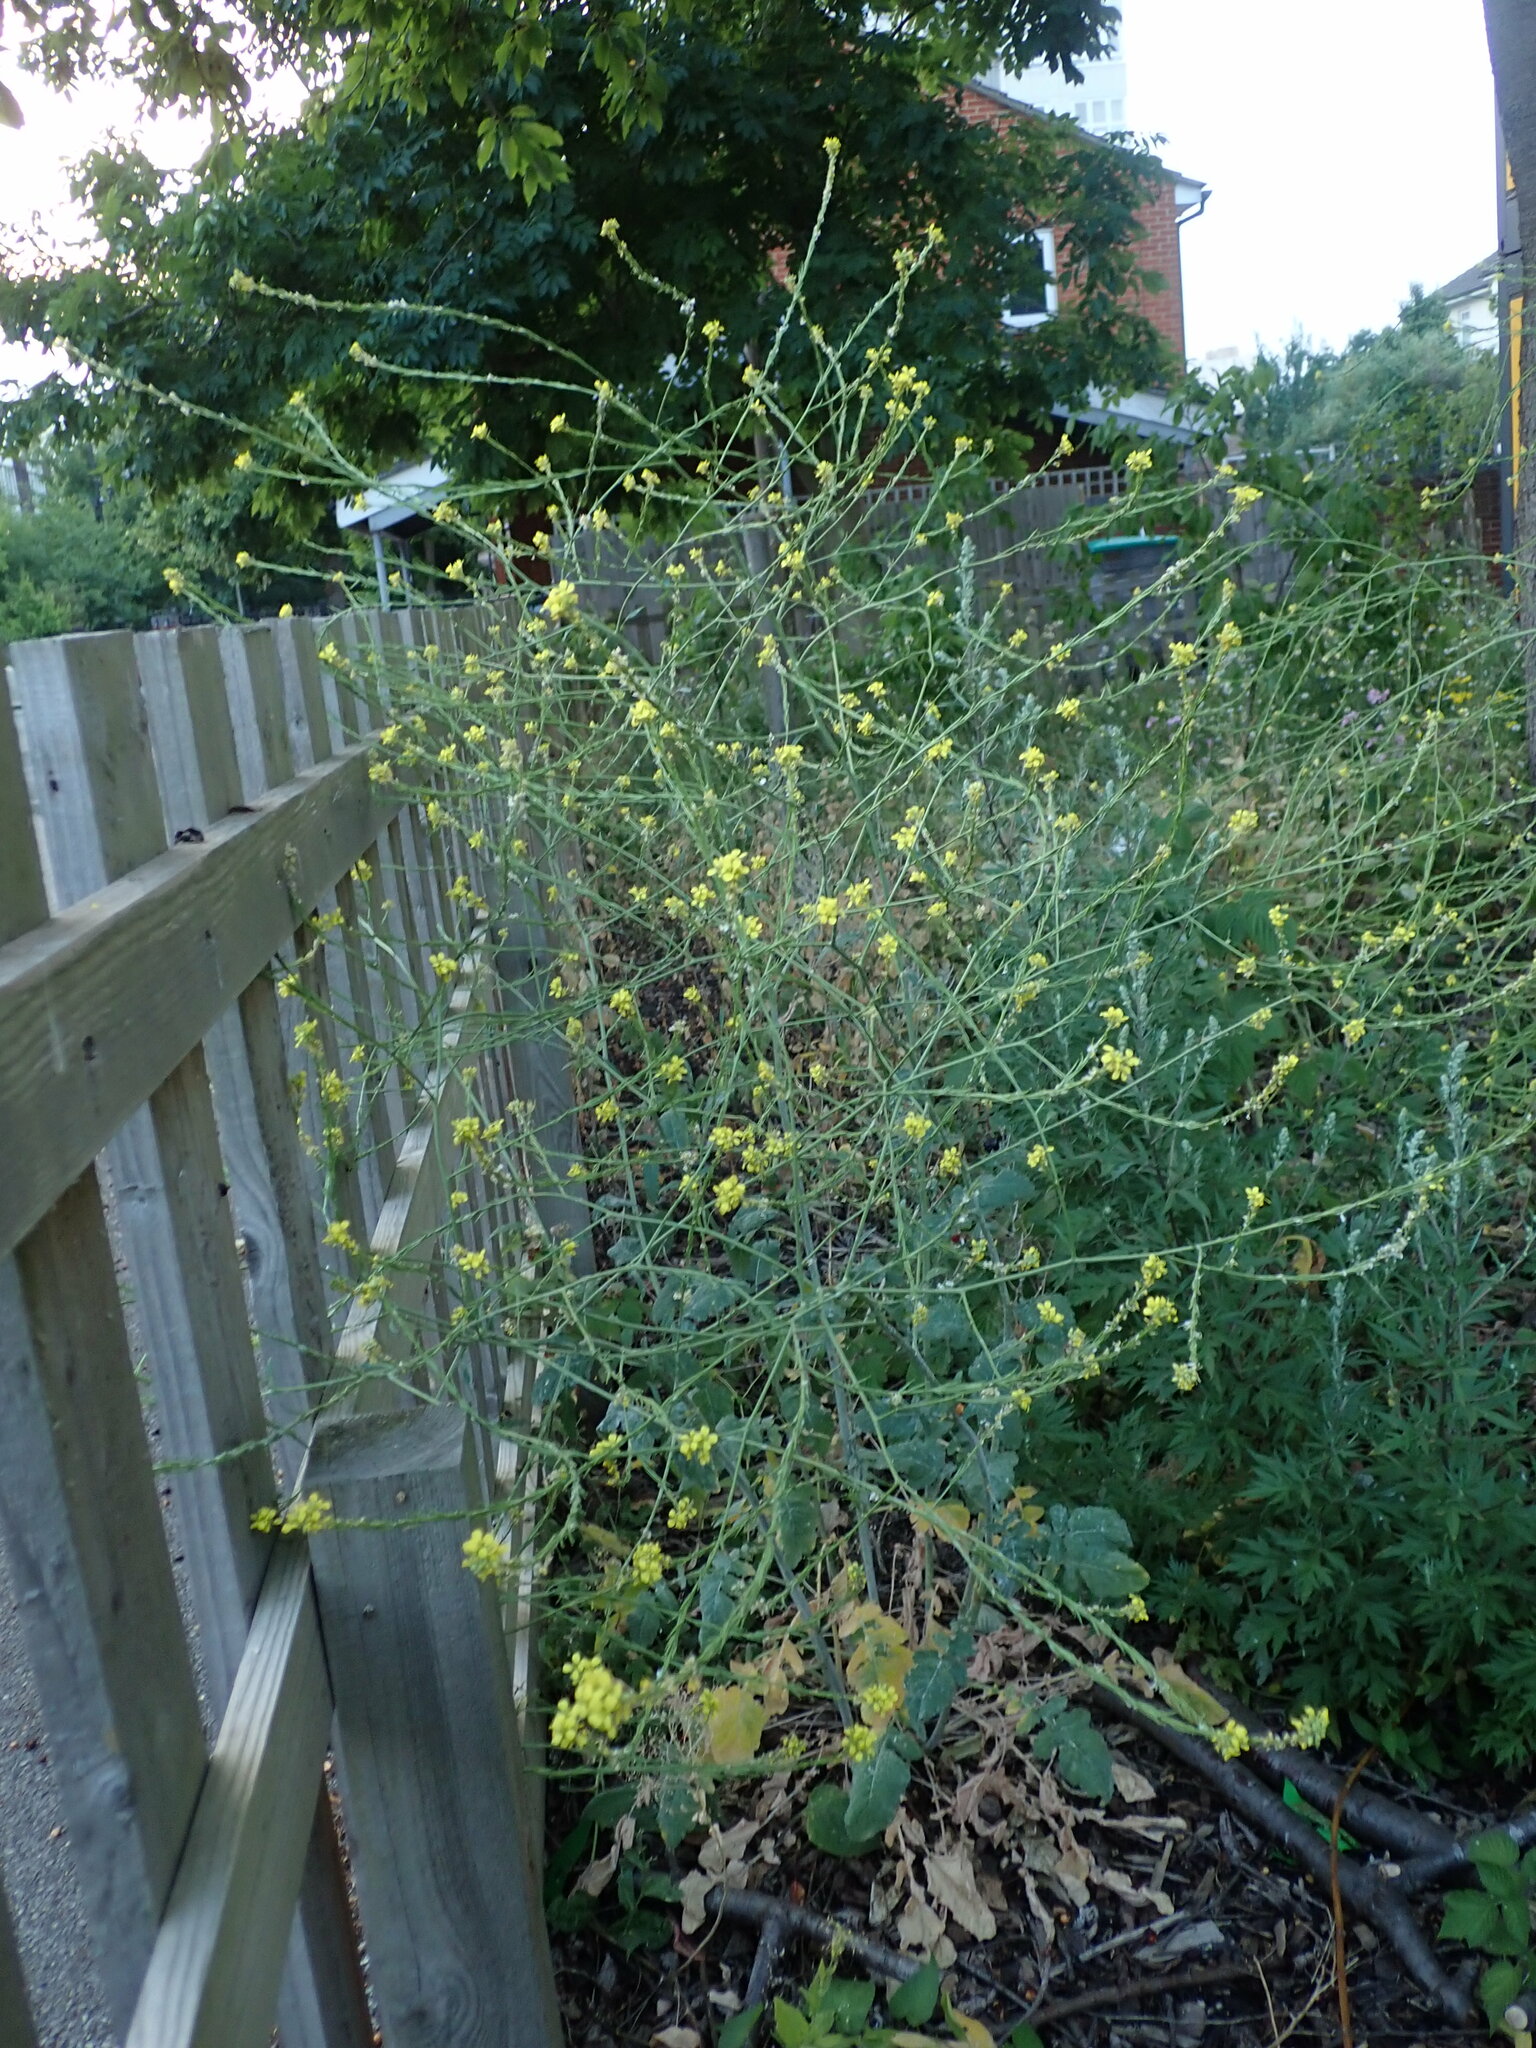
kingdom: Plantae
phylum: Tracheophyta
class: Magnoliopsida
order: Brassicales
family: Brassicaceae
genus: Hirschfeldia
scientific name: Hirschfeldia incana
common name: Hoary mustard
